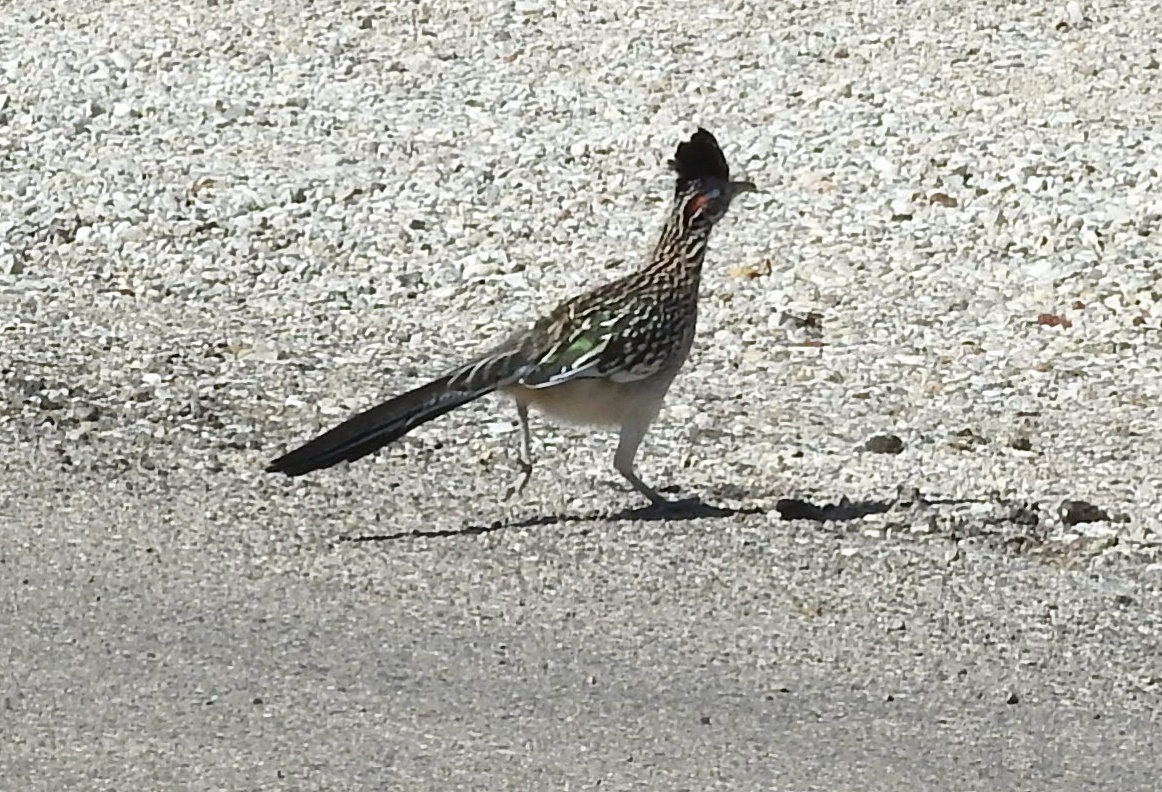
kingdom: Animalia
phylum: Chordata
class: Aves
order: Cuculiformes
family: Cuculidae
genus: Geococcyx
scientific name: Geococcyx californianus
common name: Greater roadrunner
